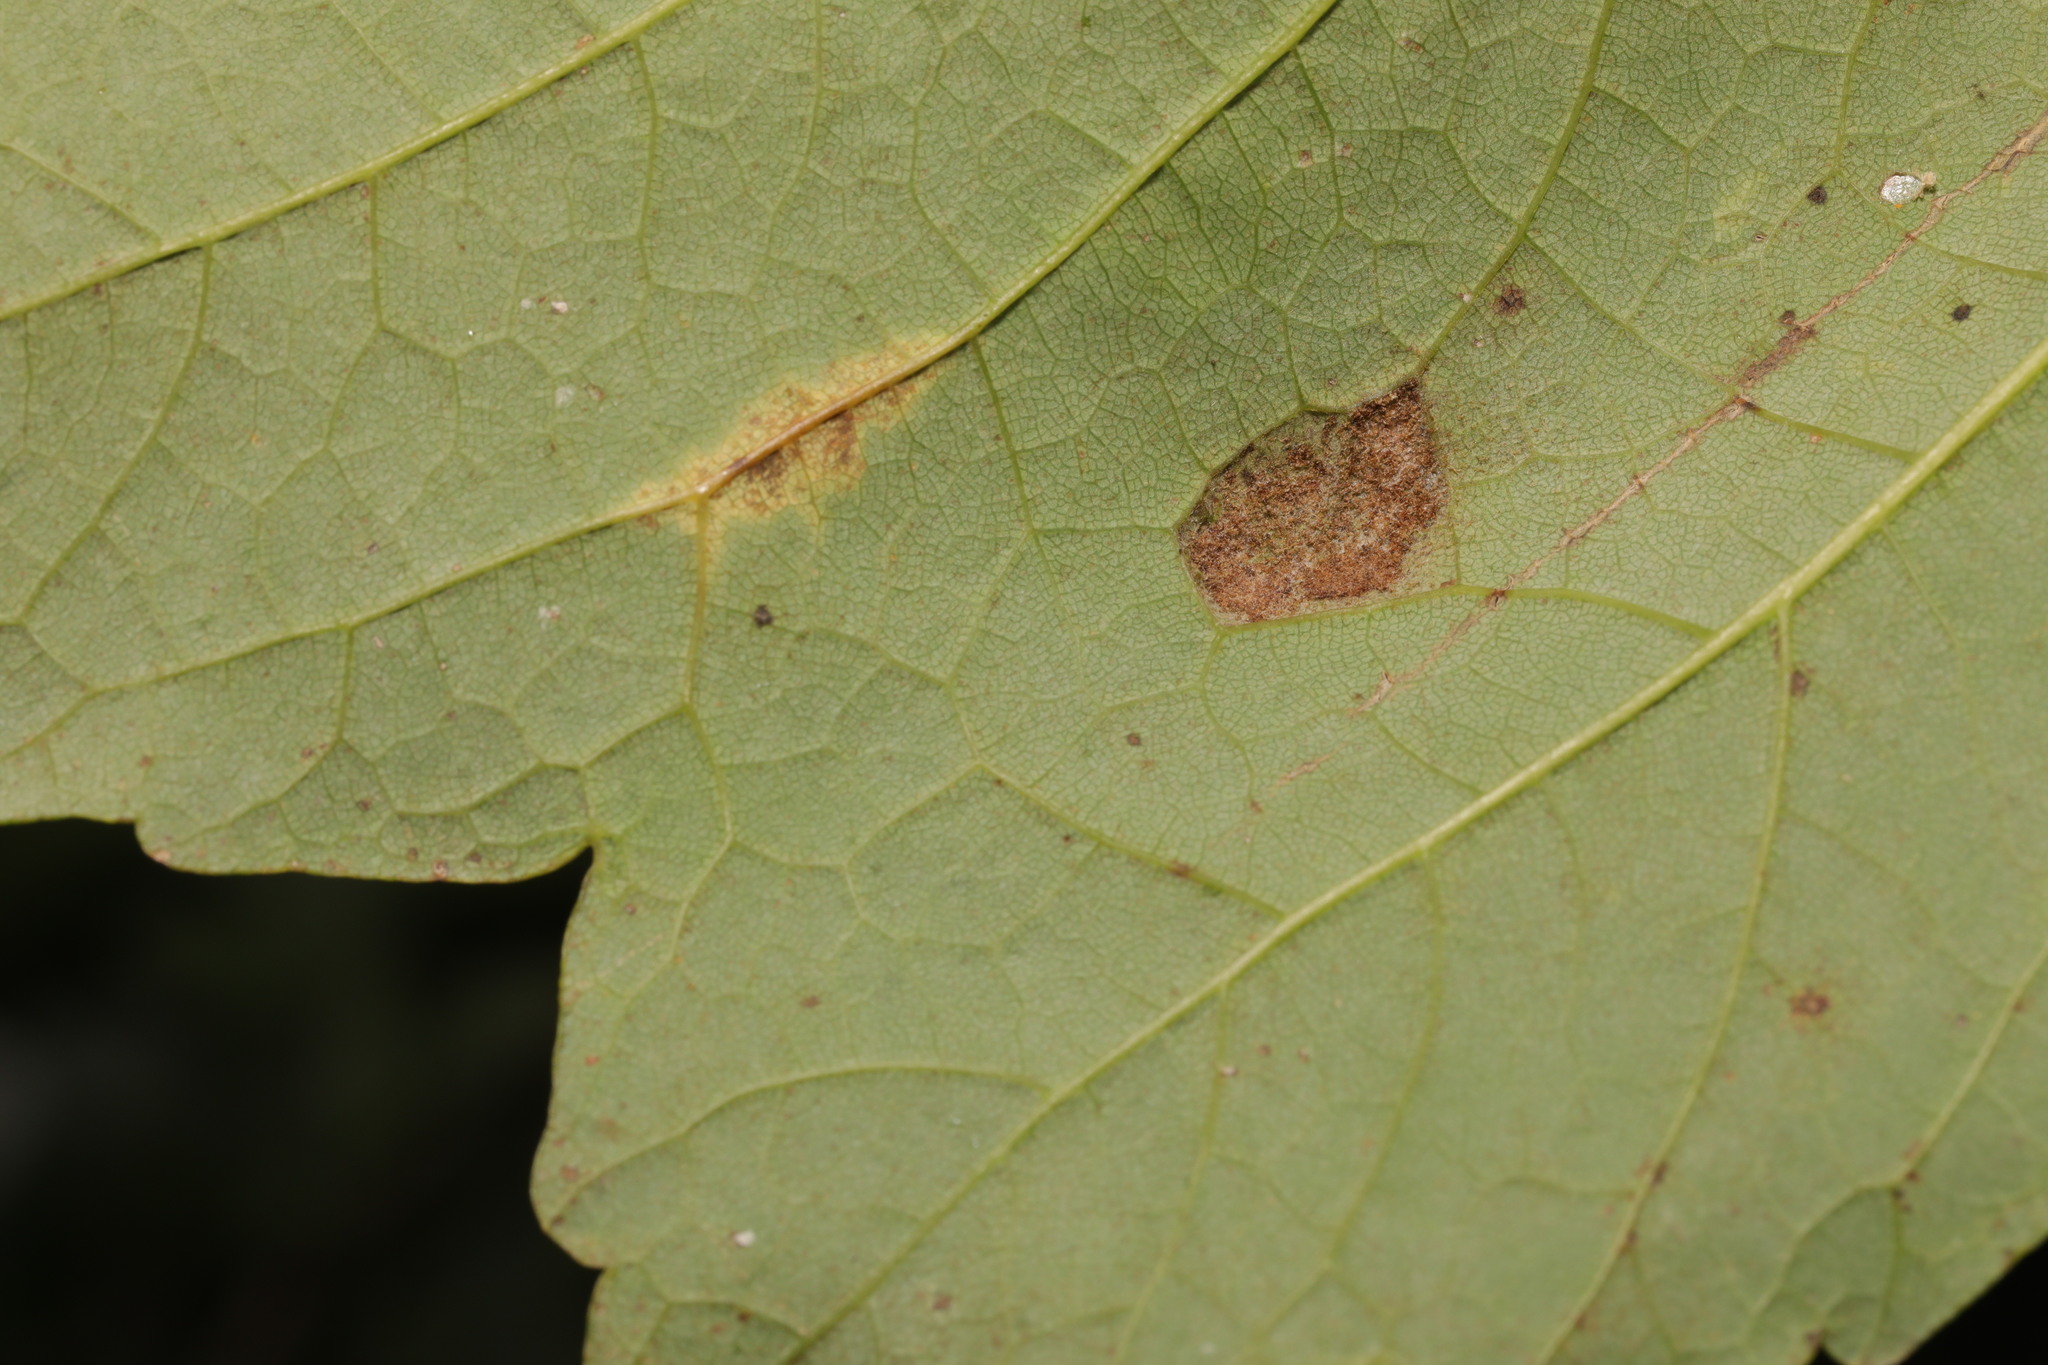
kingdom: Animalia
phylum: Arthropoda
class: Arachnida
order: Trombidiformes
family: Eriophyidae
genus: Aceria
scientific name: Aceria pseudoplatani
